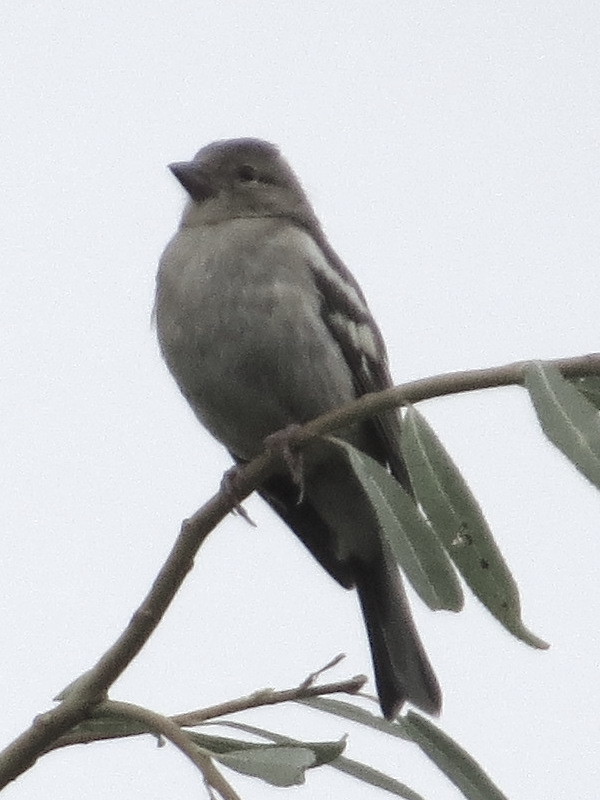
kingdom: Animalia
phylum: Chordata
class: Aves
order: Passeriformes
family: Fringillidae
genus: Fringilla
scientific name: Fringilla coelebs
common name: Common chaffinch
